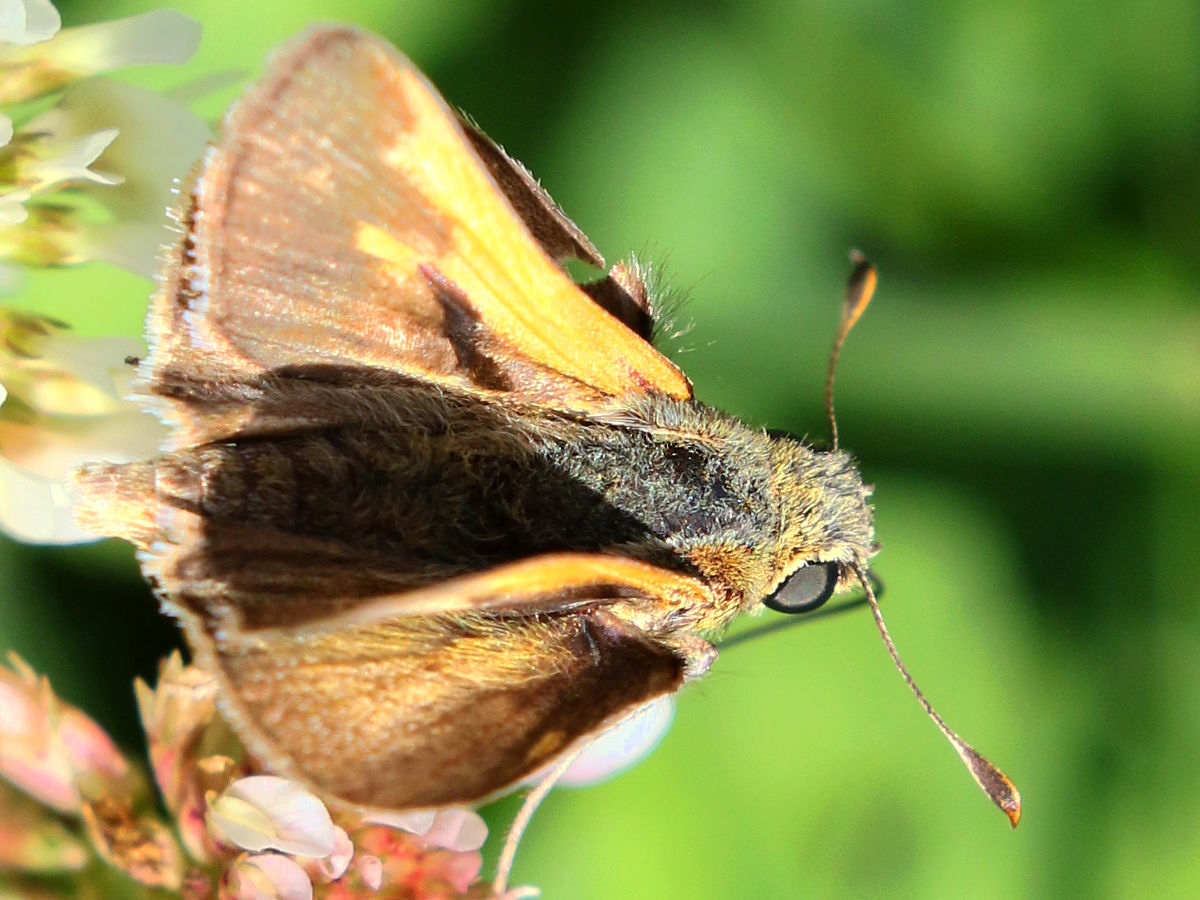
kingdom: Animalia
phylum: Arthropoda
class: Insecta
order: Lepidoptera
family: Hesperiidae
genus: Polites
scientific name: Polites themistocles
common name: Tawny-edged skipper
